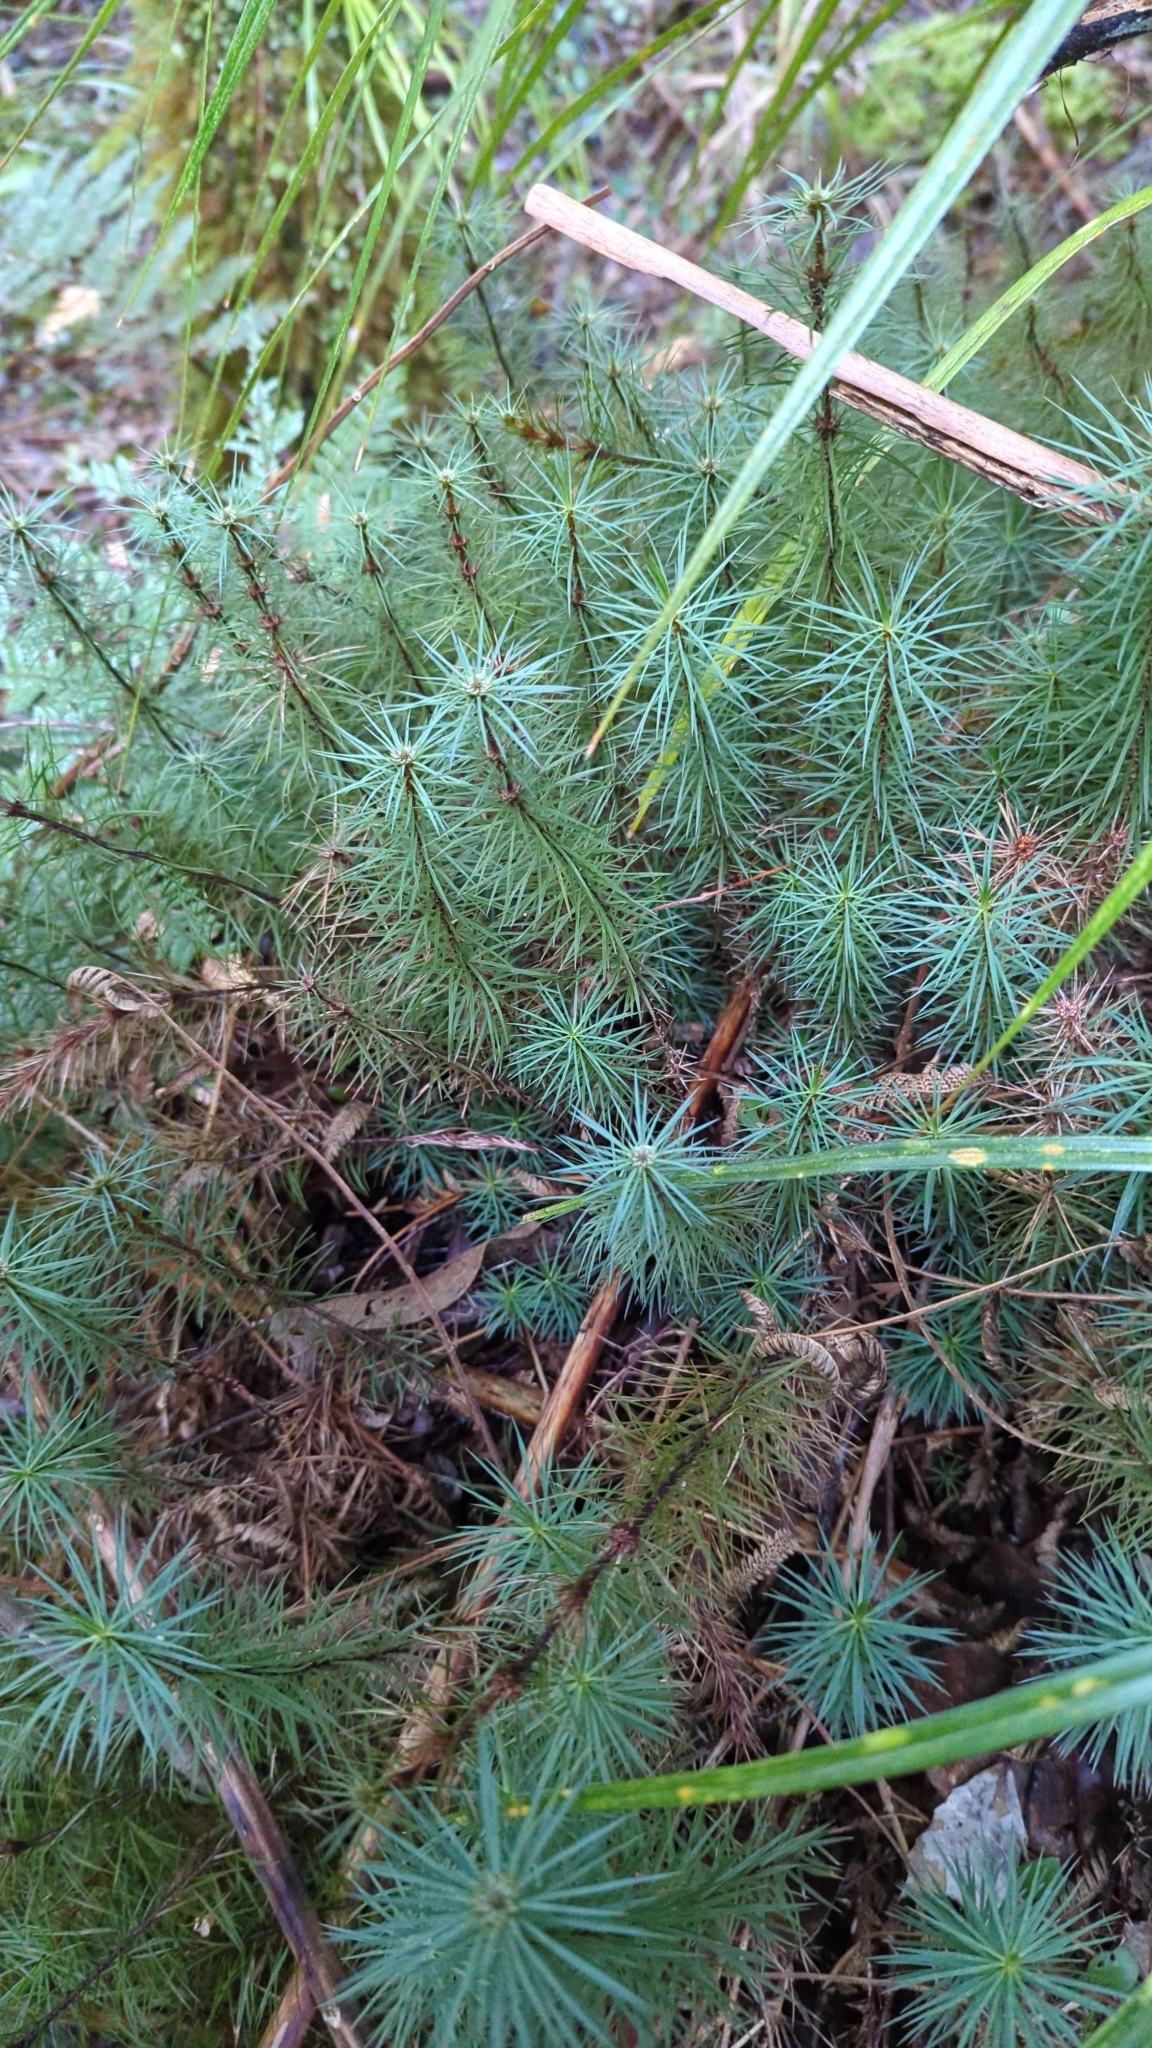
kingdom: Plantae
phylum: Bryophyta
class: Polytrichopsida
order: Polytrichales
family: Polytrichaceae
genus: Dawsonia
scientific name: Dawsonia superba
